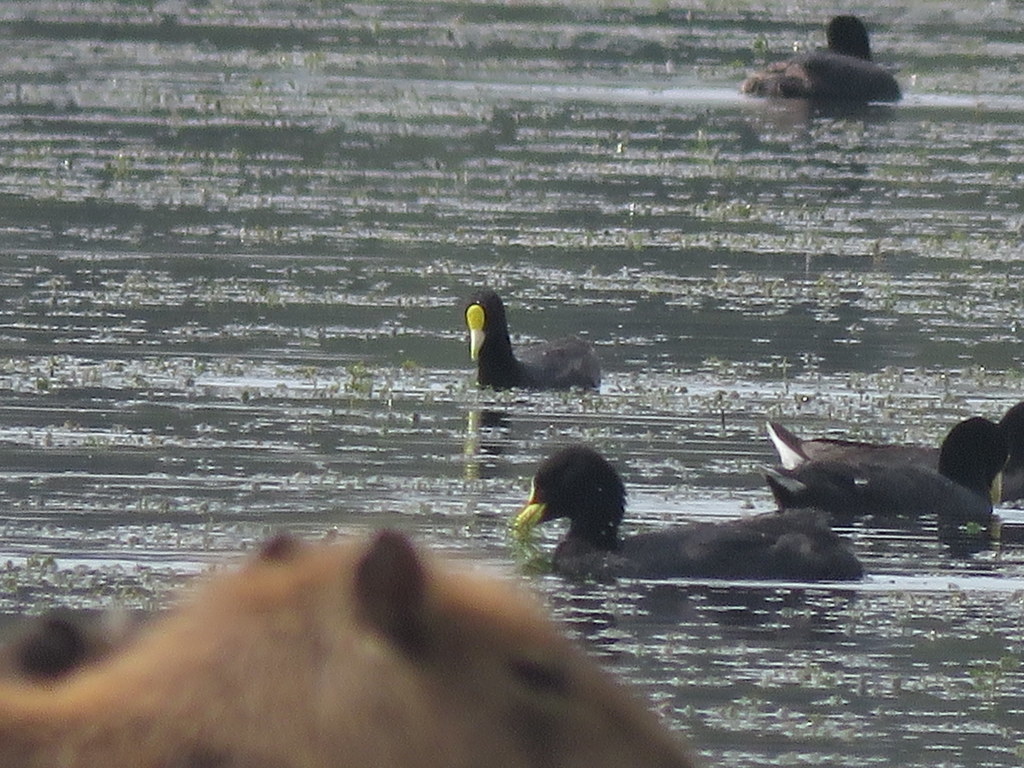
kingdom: Animalia
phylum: Chordata
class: Aves
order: Gruiformes
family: Rallidae
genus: Fulica
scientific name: Fulica leucoptera
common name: White-winged coot
